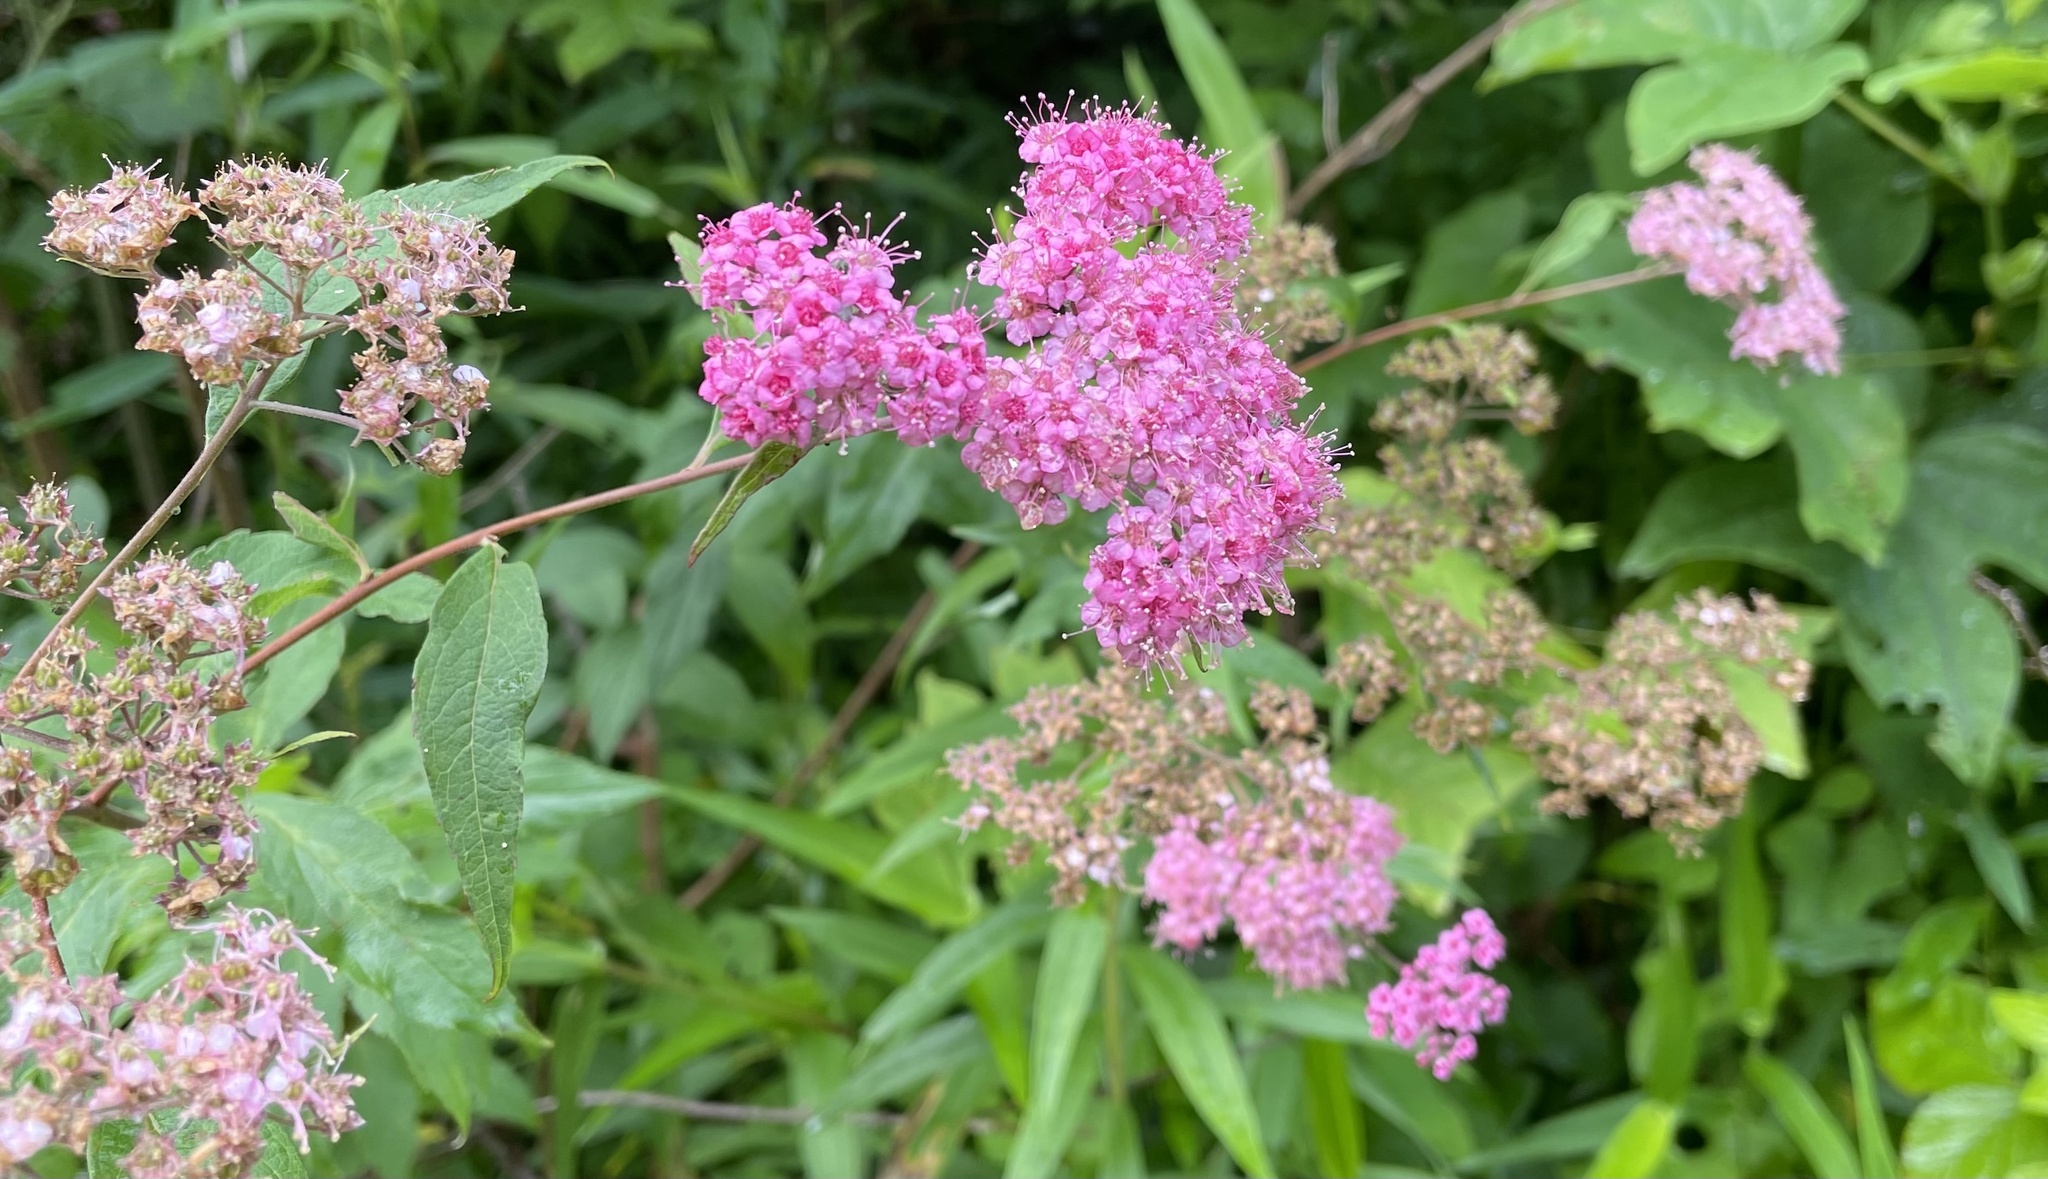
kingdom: Plantae
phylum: Tracheophyta
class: Magnoliopsida
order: Rosales
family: Rosaceae
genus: Spiraea
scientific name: Spiraea japonica
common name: Japanese spiraea
